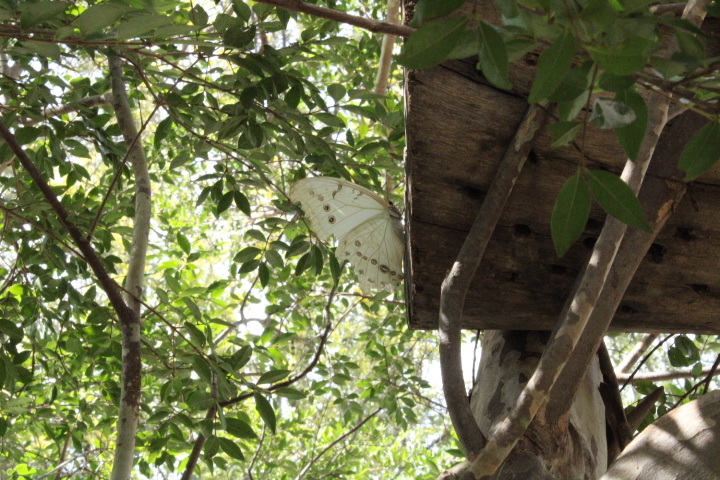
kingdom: Animalia
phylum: Arthropoda
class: Insecta
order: Lepidoptera
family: Nymphalidae
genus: Morpho
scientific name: Morpho polyphemus
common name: White morpho
